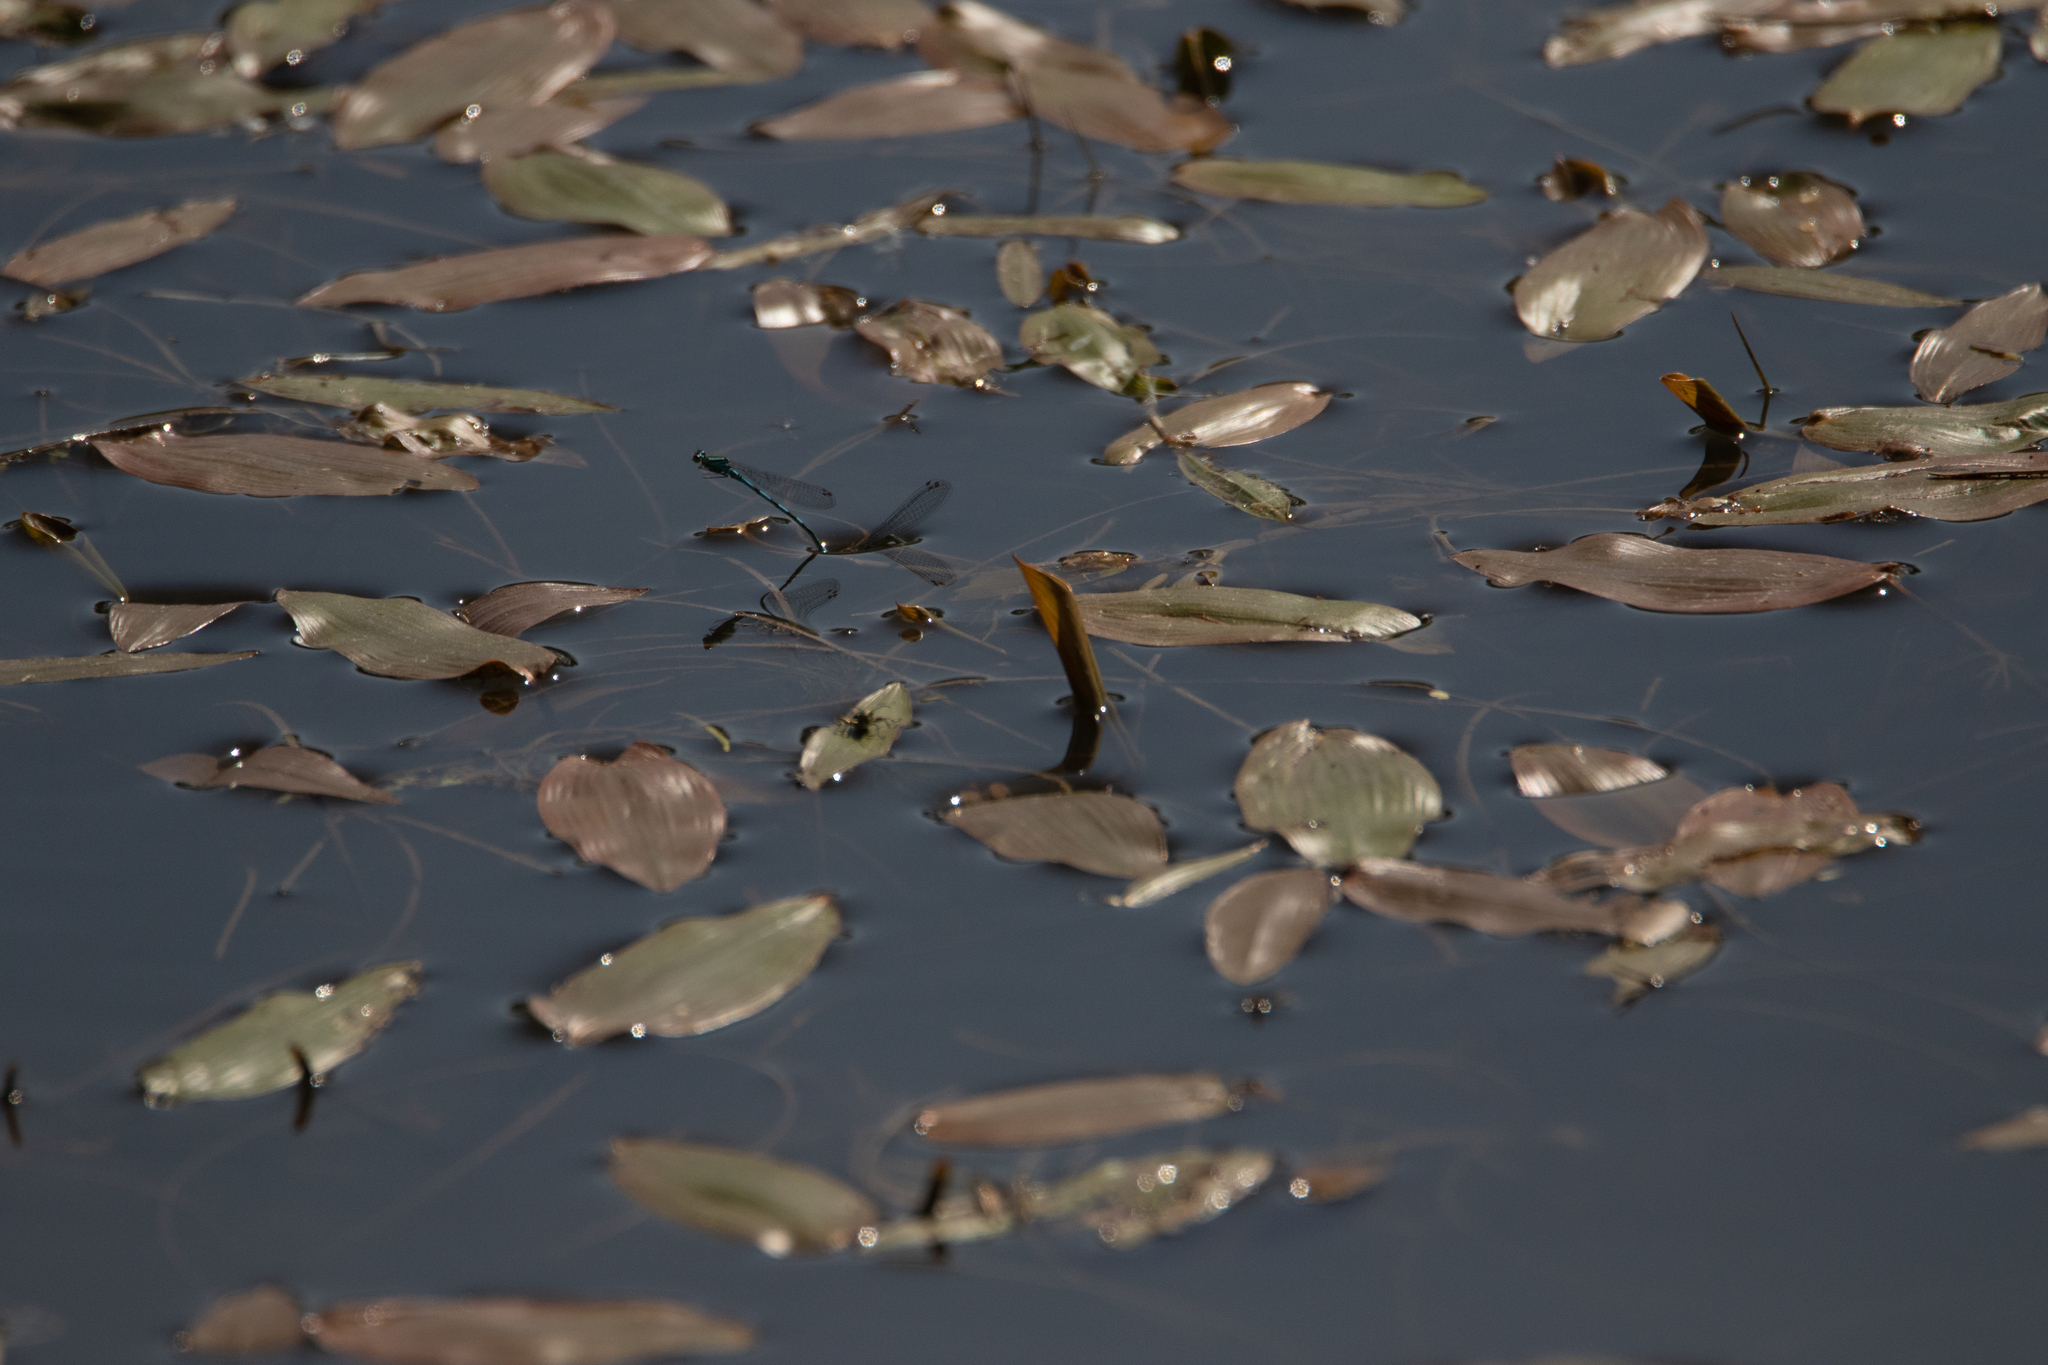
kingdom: Plantae
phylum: Tracheophyta
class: Liliopsida
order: Alismatales
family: Potamogetonaceae
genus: Potamogeton
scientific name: Potamogeton natans
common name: Broad-leaved pondweed
